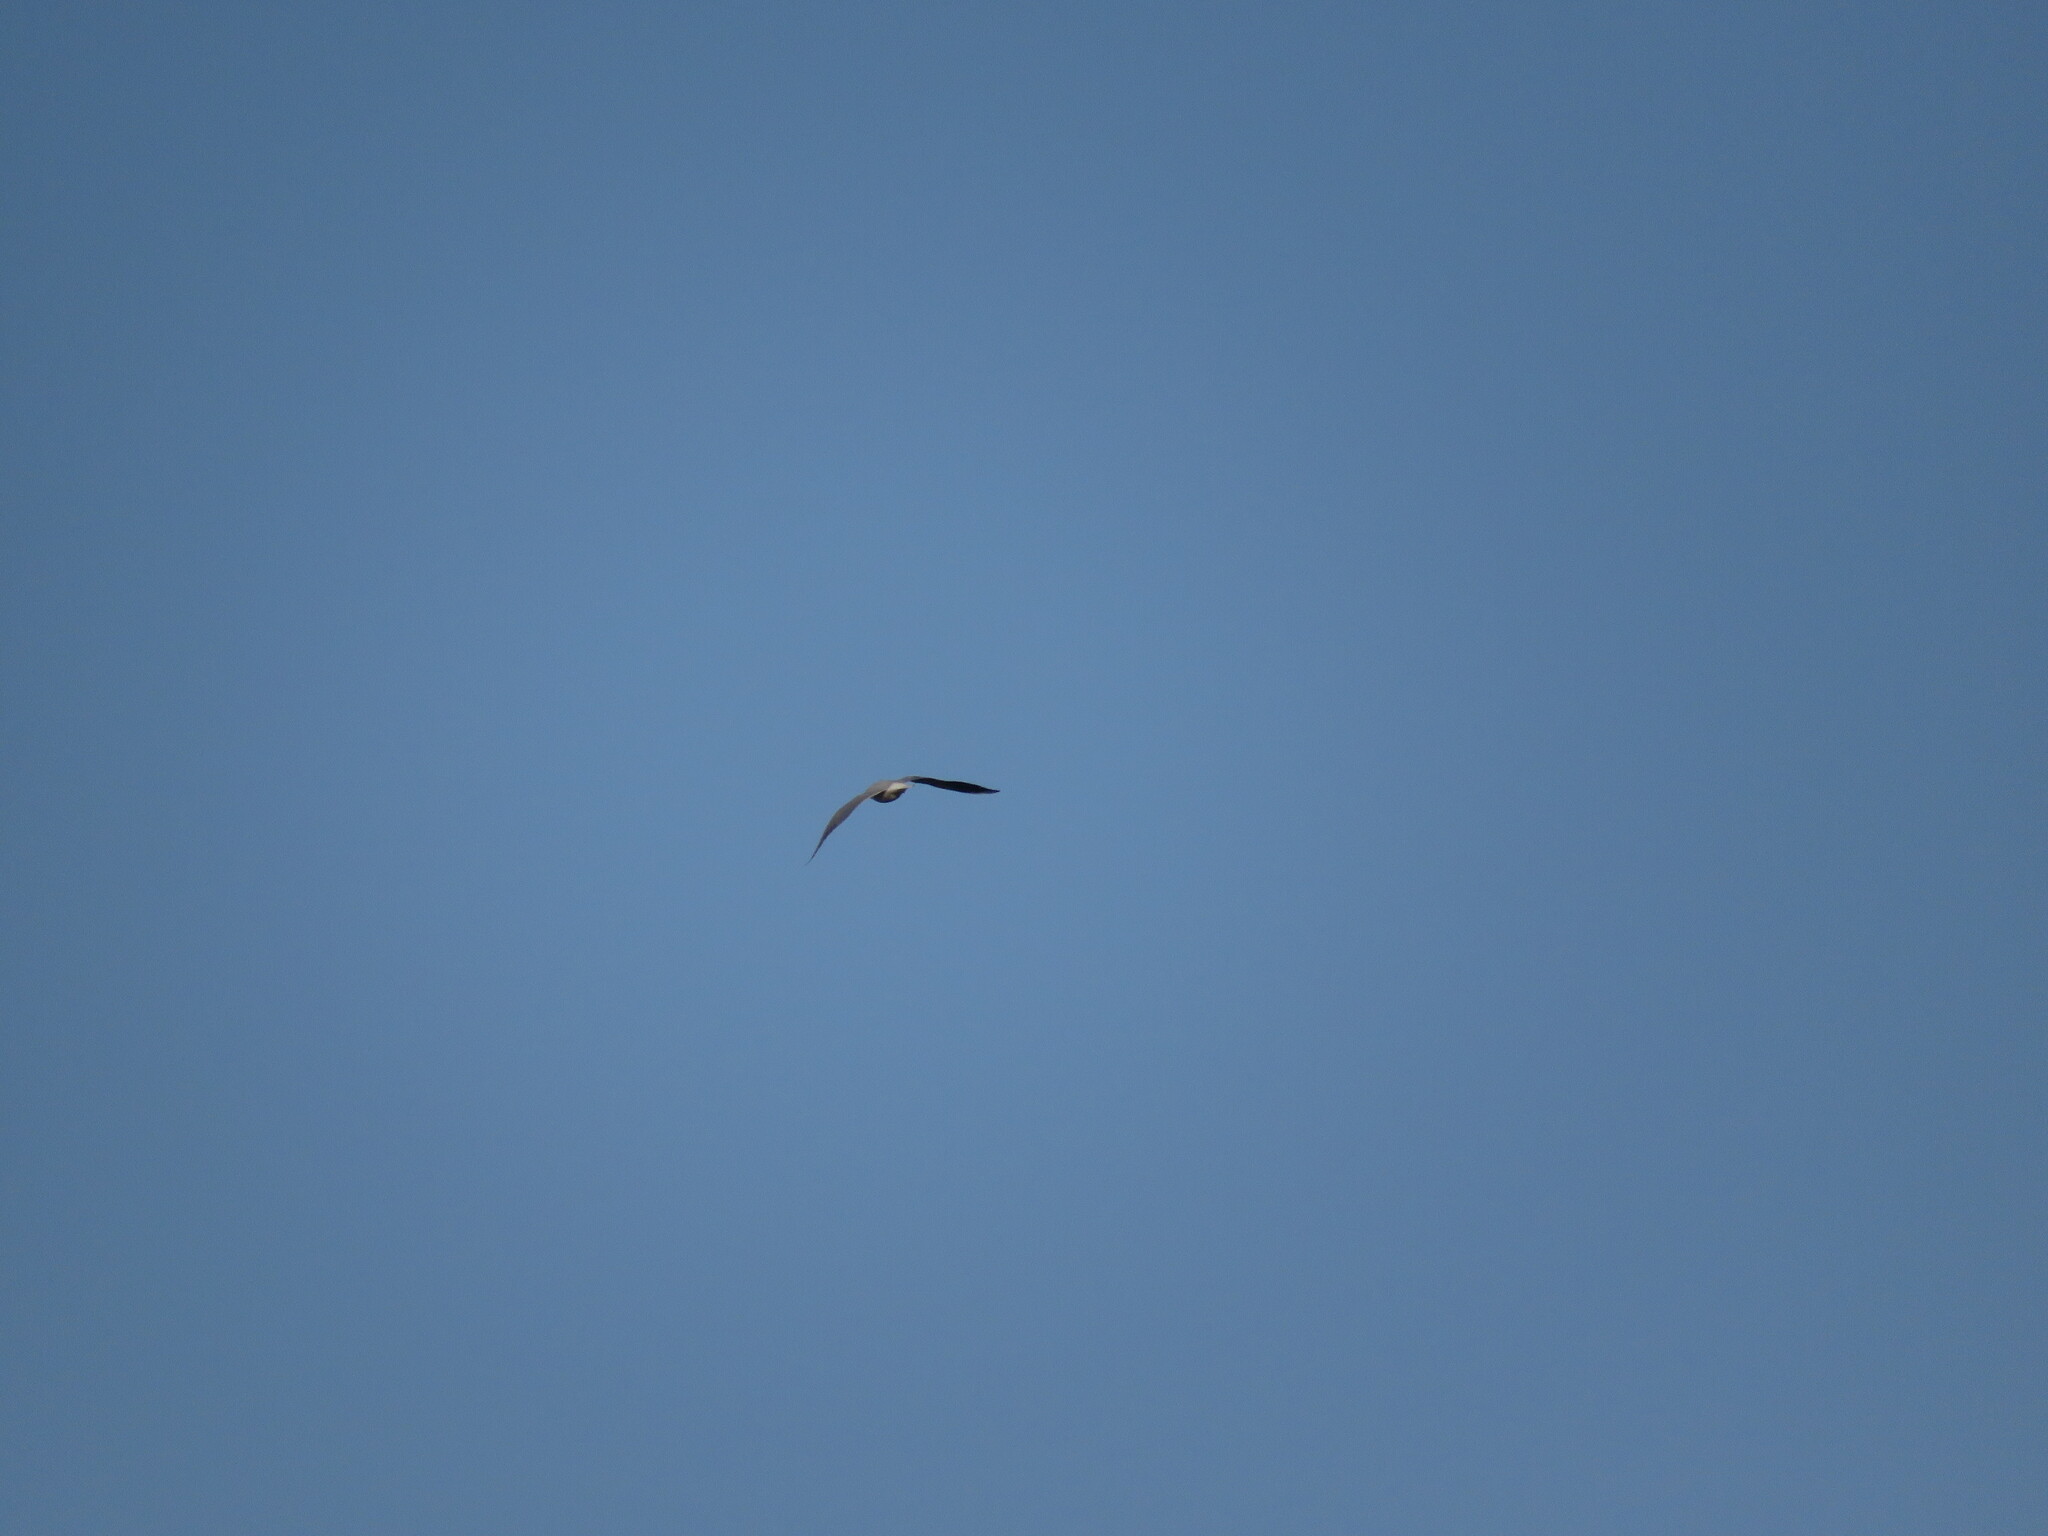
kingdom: Animalia
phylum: Chordata
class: Aves
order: Charadriiformes
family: Laridae
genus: Chroicocephalus
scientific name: Chroicocephalus maculipennis
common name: Brown-hooded gull
